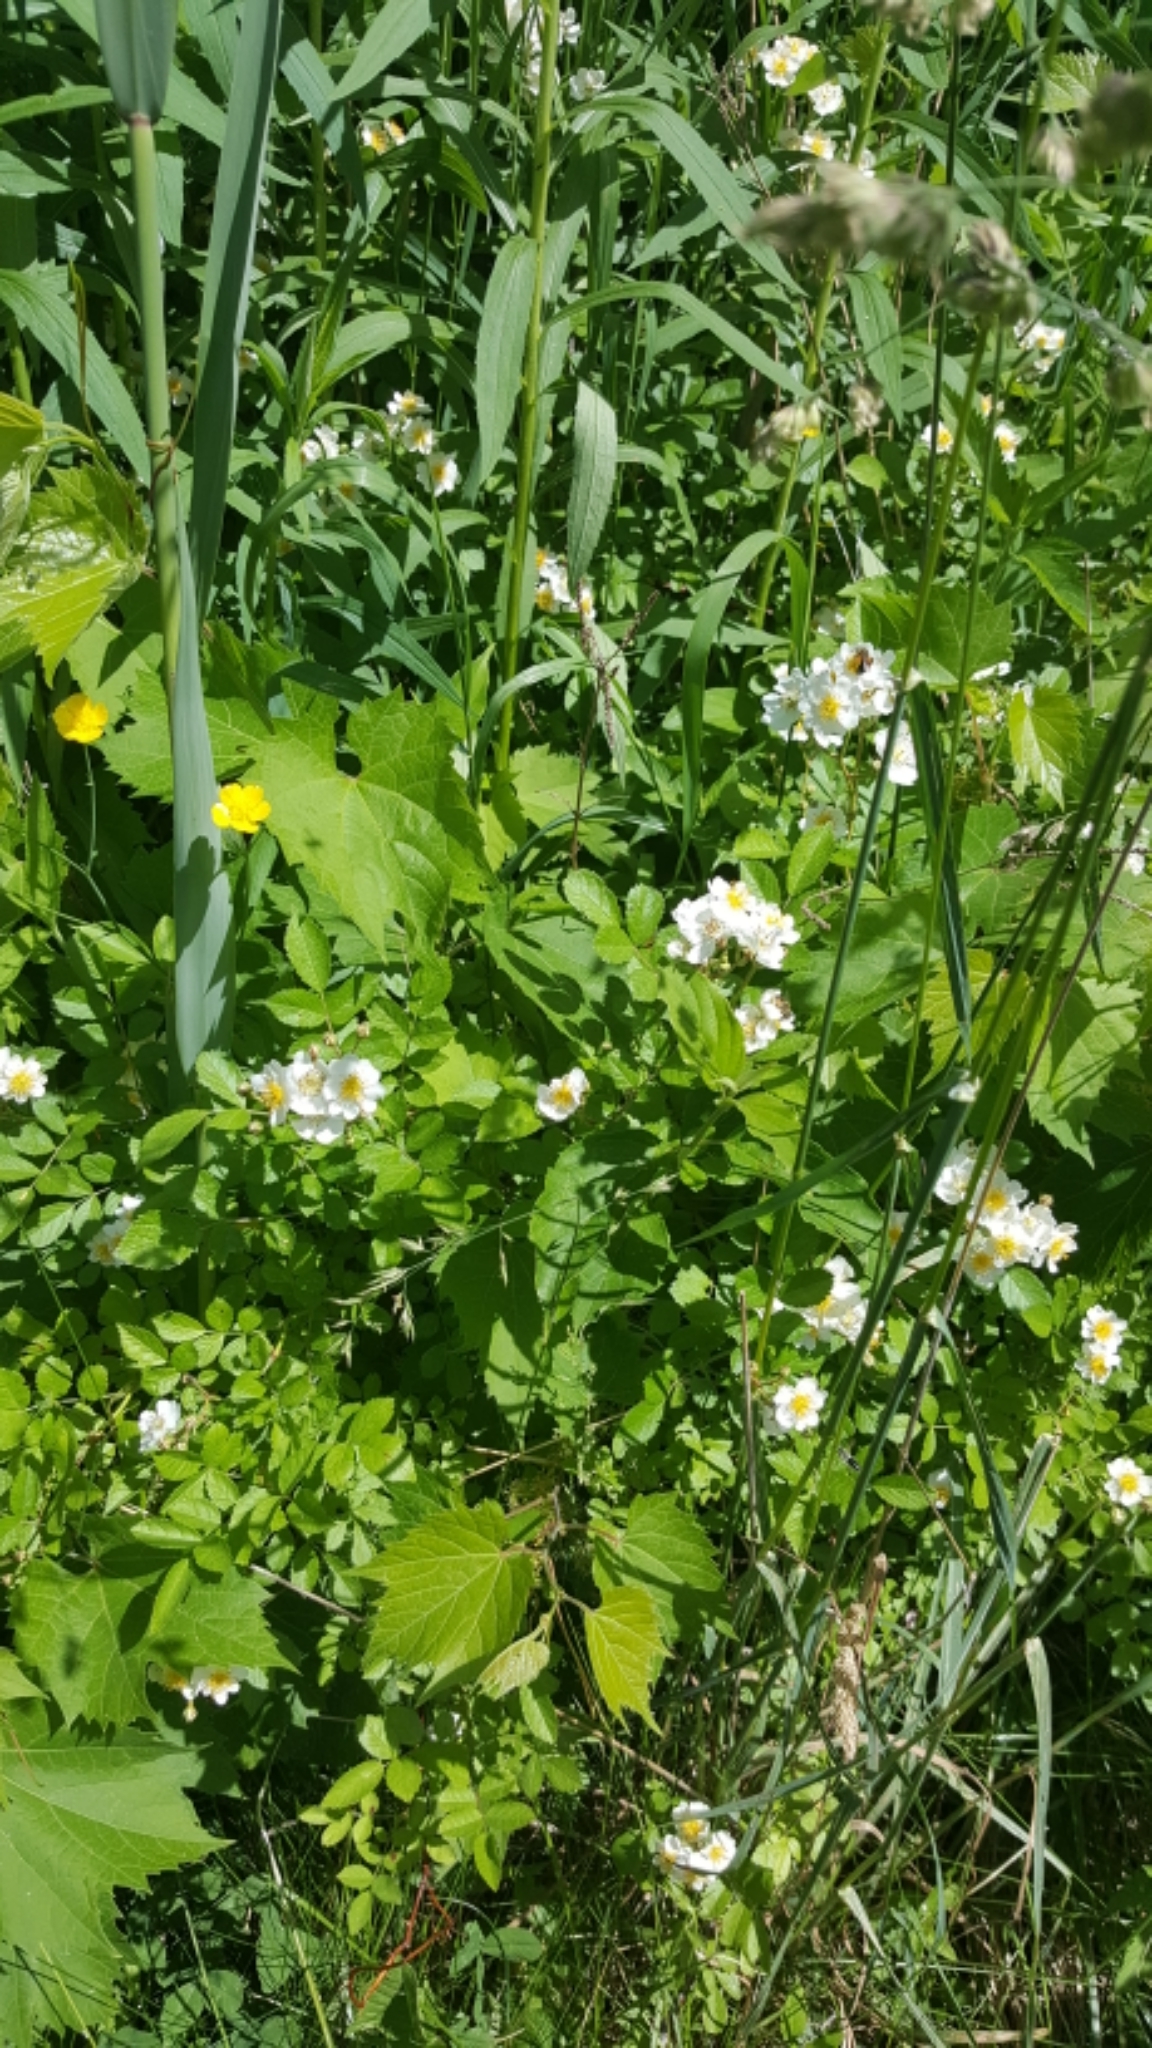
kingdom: Plantae
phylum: Tracheophyta
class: Magnoliopsida
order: Rosales
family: Rosaceae
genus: Rosa
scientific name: Rosa multiflora
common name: Multiflora rose
